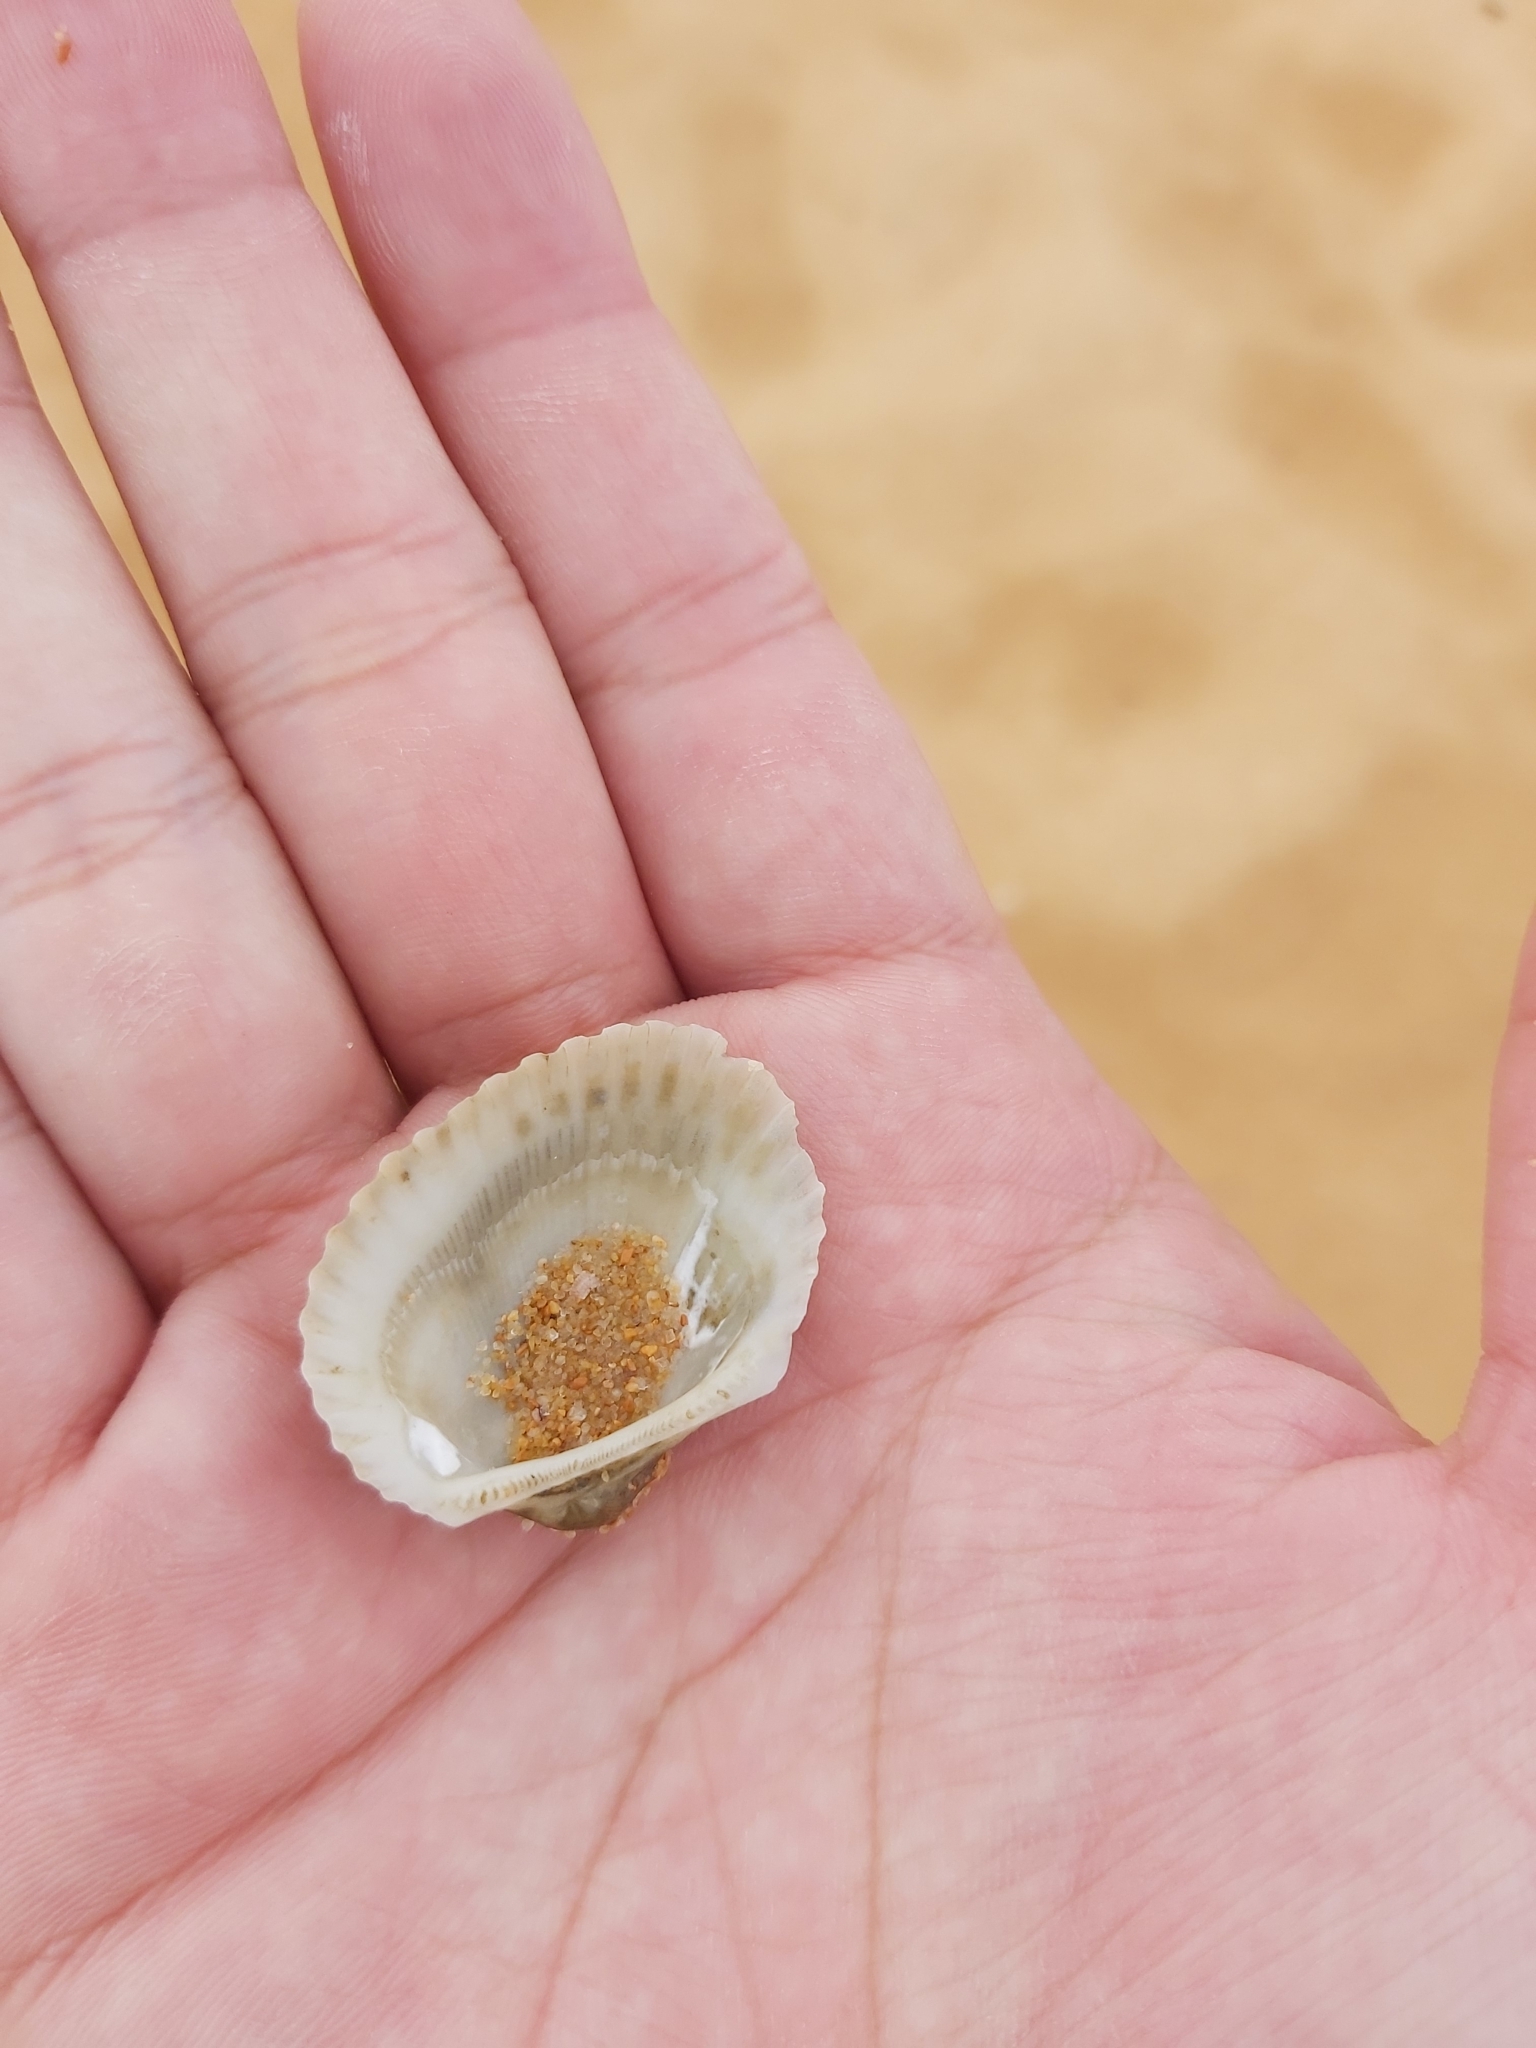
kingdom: Animalia
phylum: Mollusca
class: Bivalvia
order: Arcida
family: Arcidae
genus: Anadara
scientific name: Anadara trapezia
